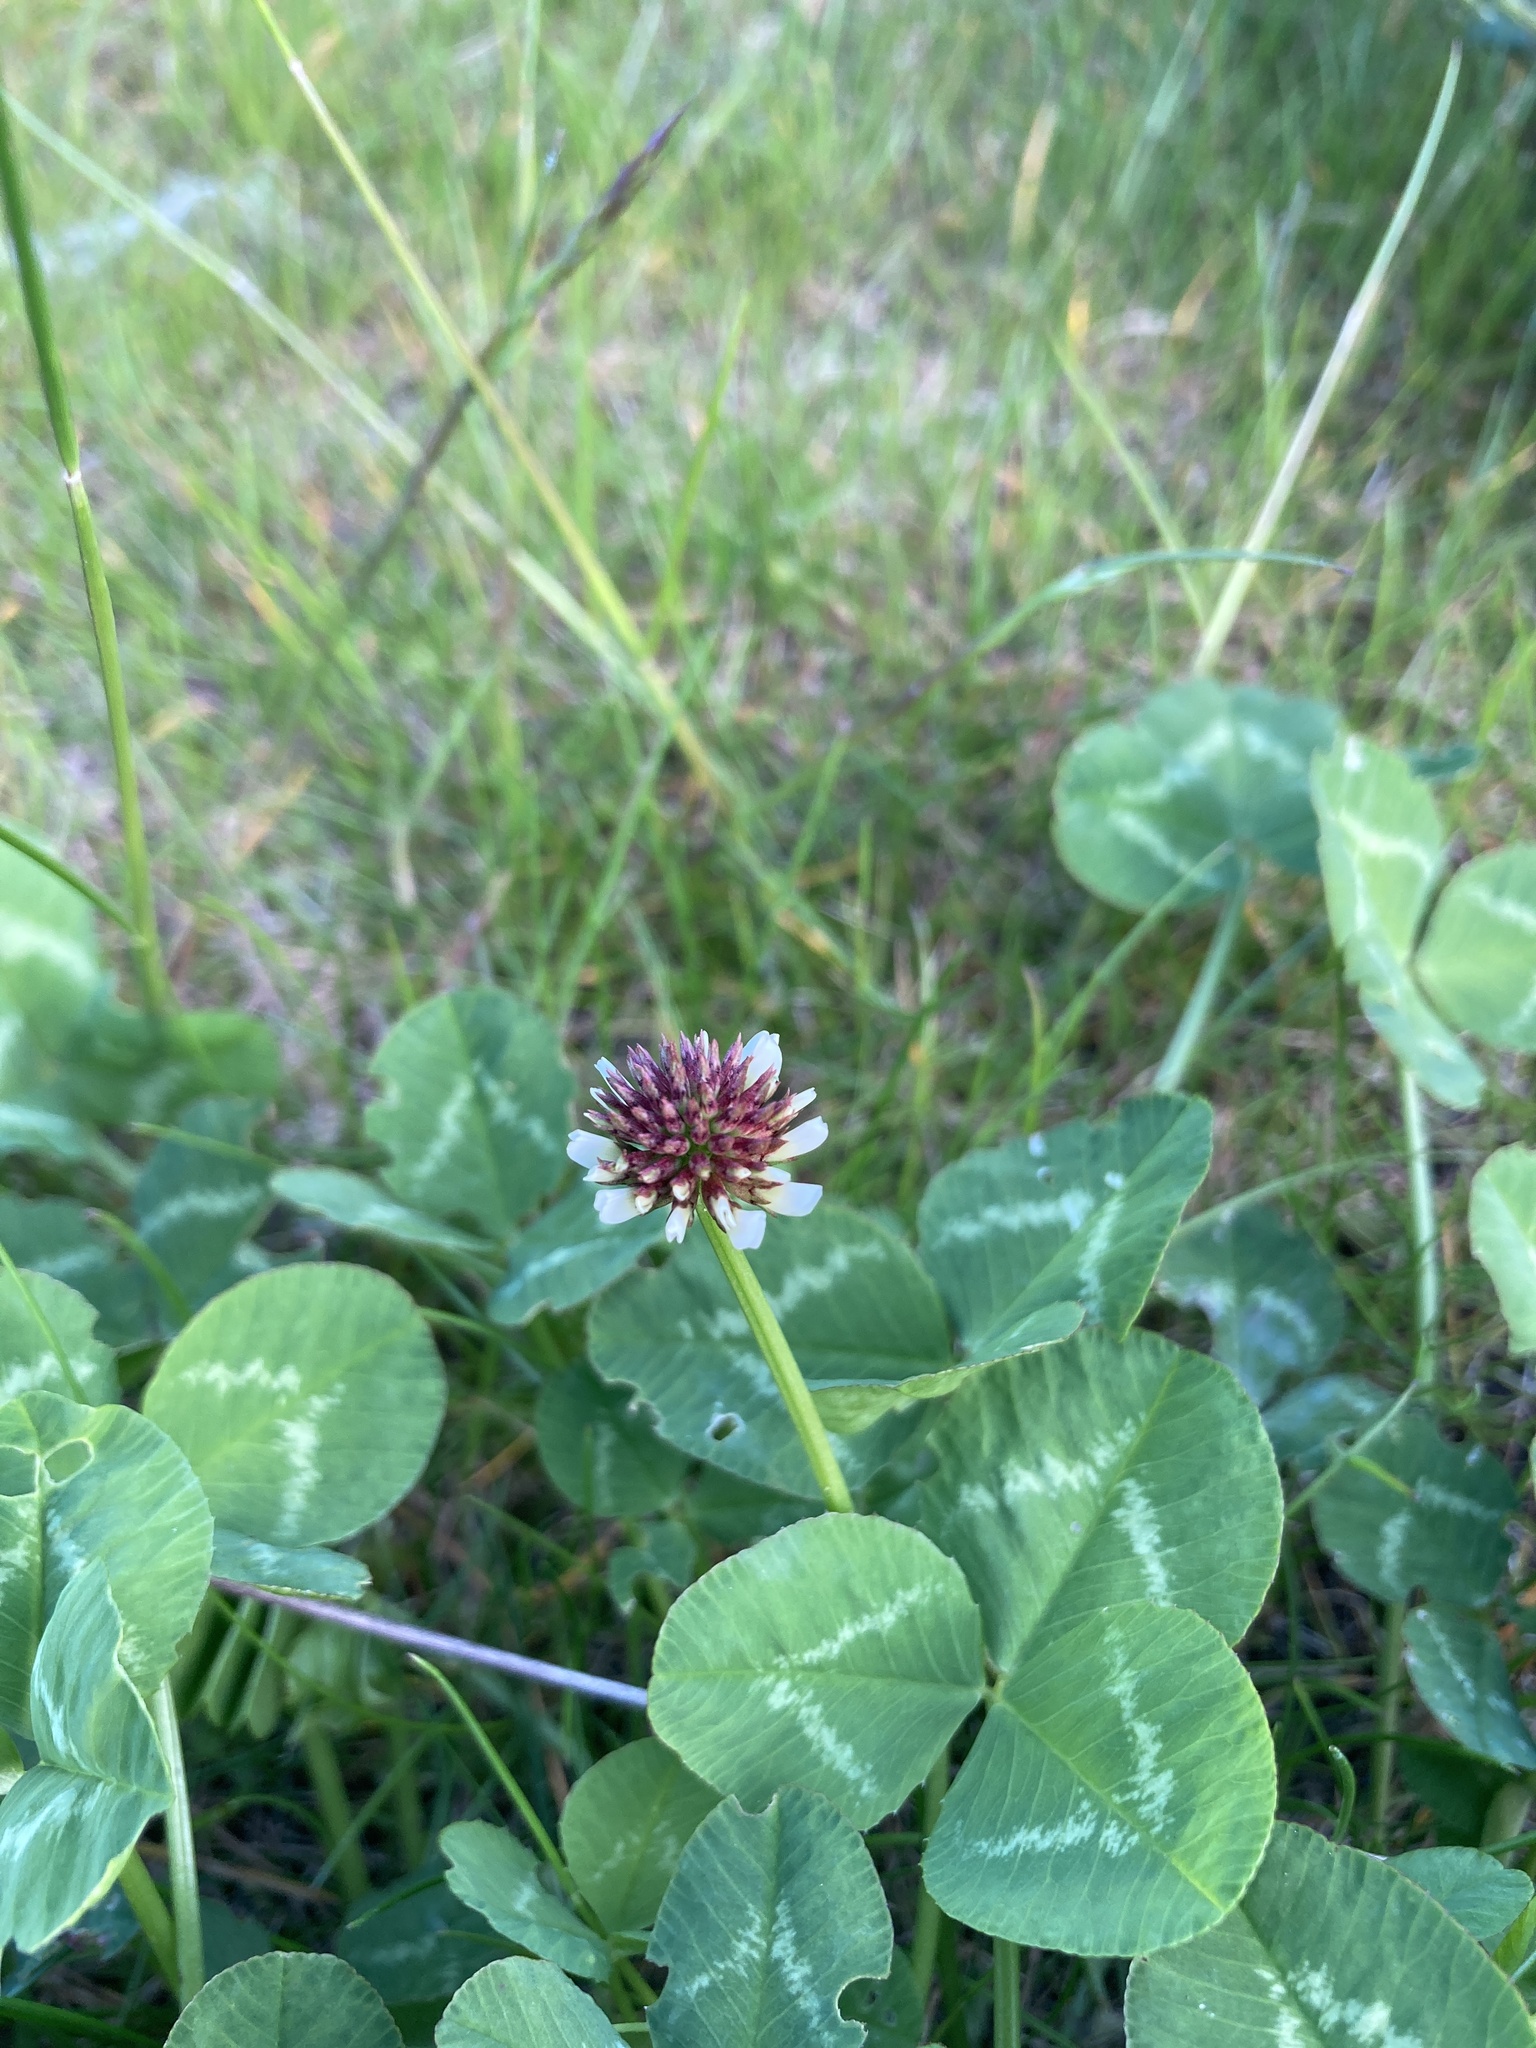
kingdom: Plantae
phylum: Tracheophyta
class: Magnoliopsida
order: Fabales
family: Fabaceae
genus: Trifolium
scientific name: Trifolium repens
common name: White clover
